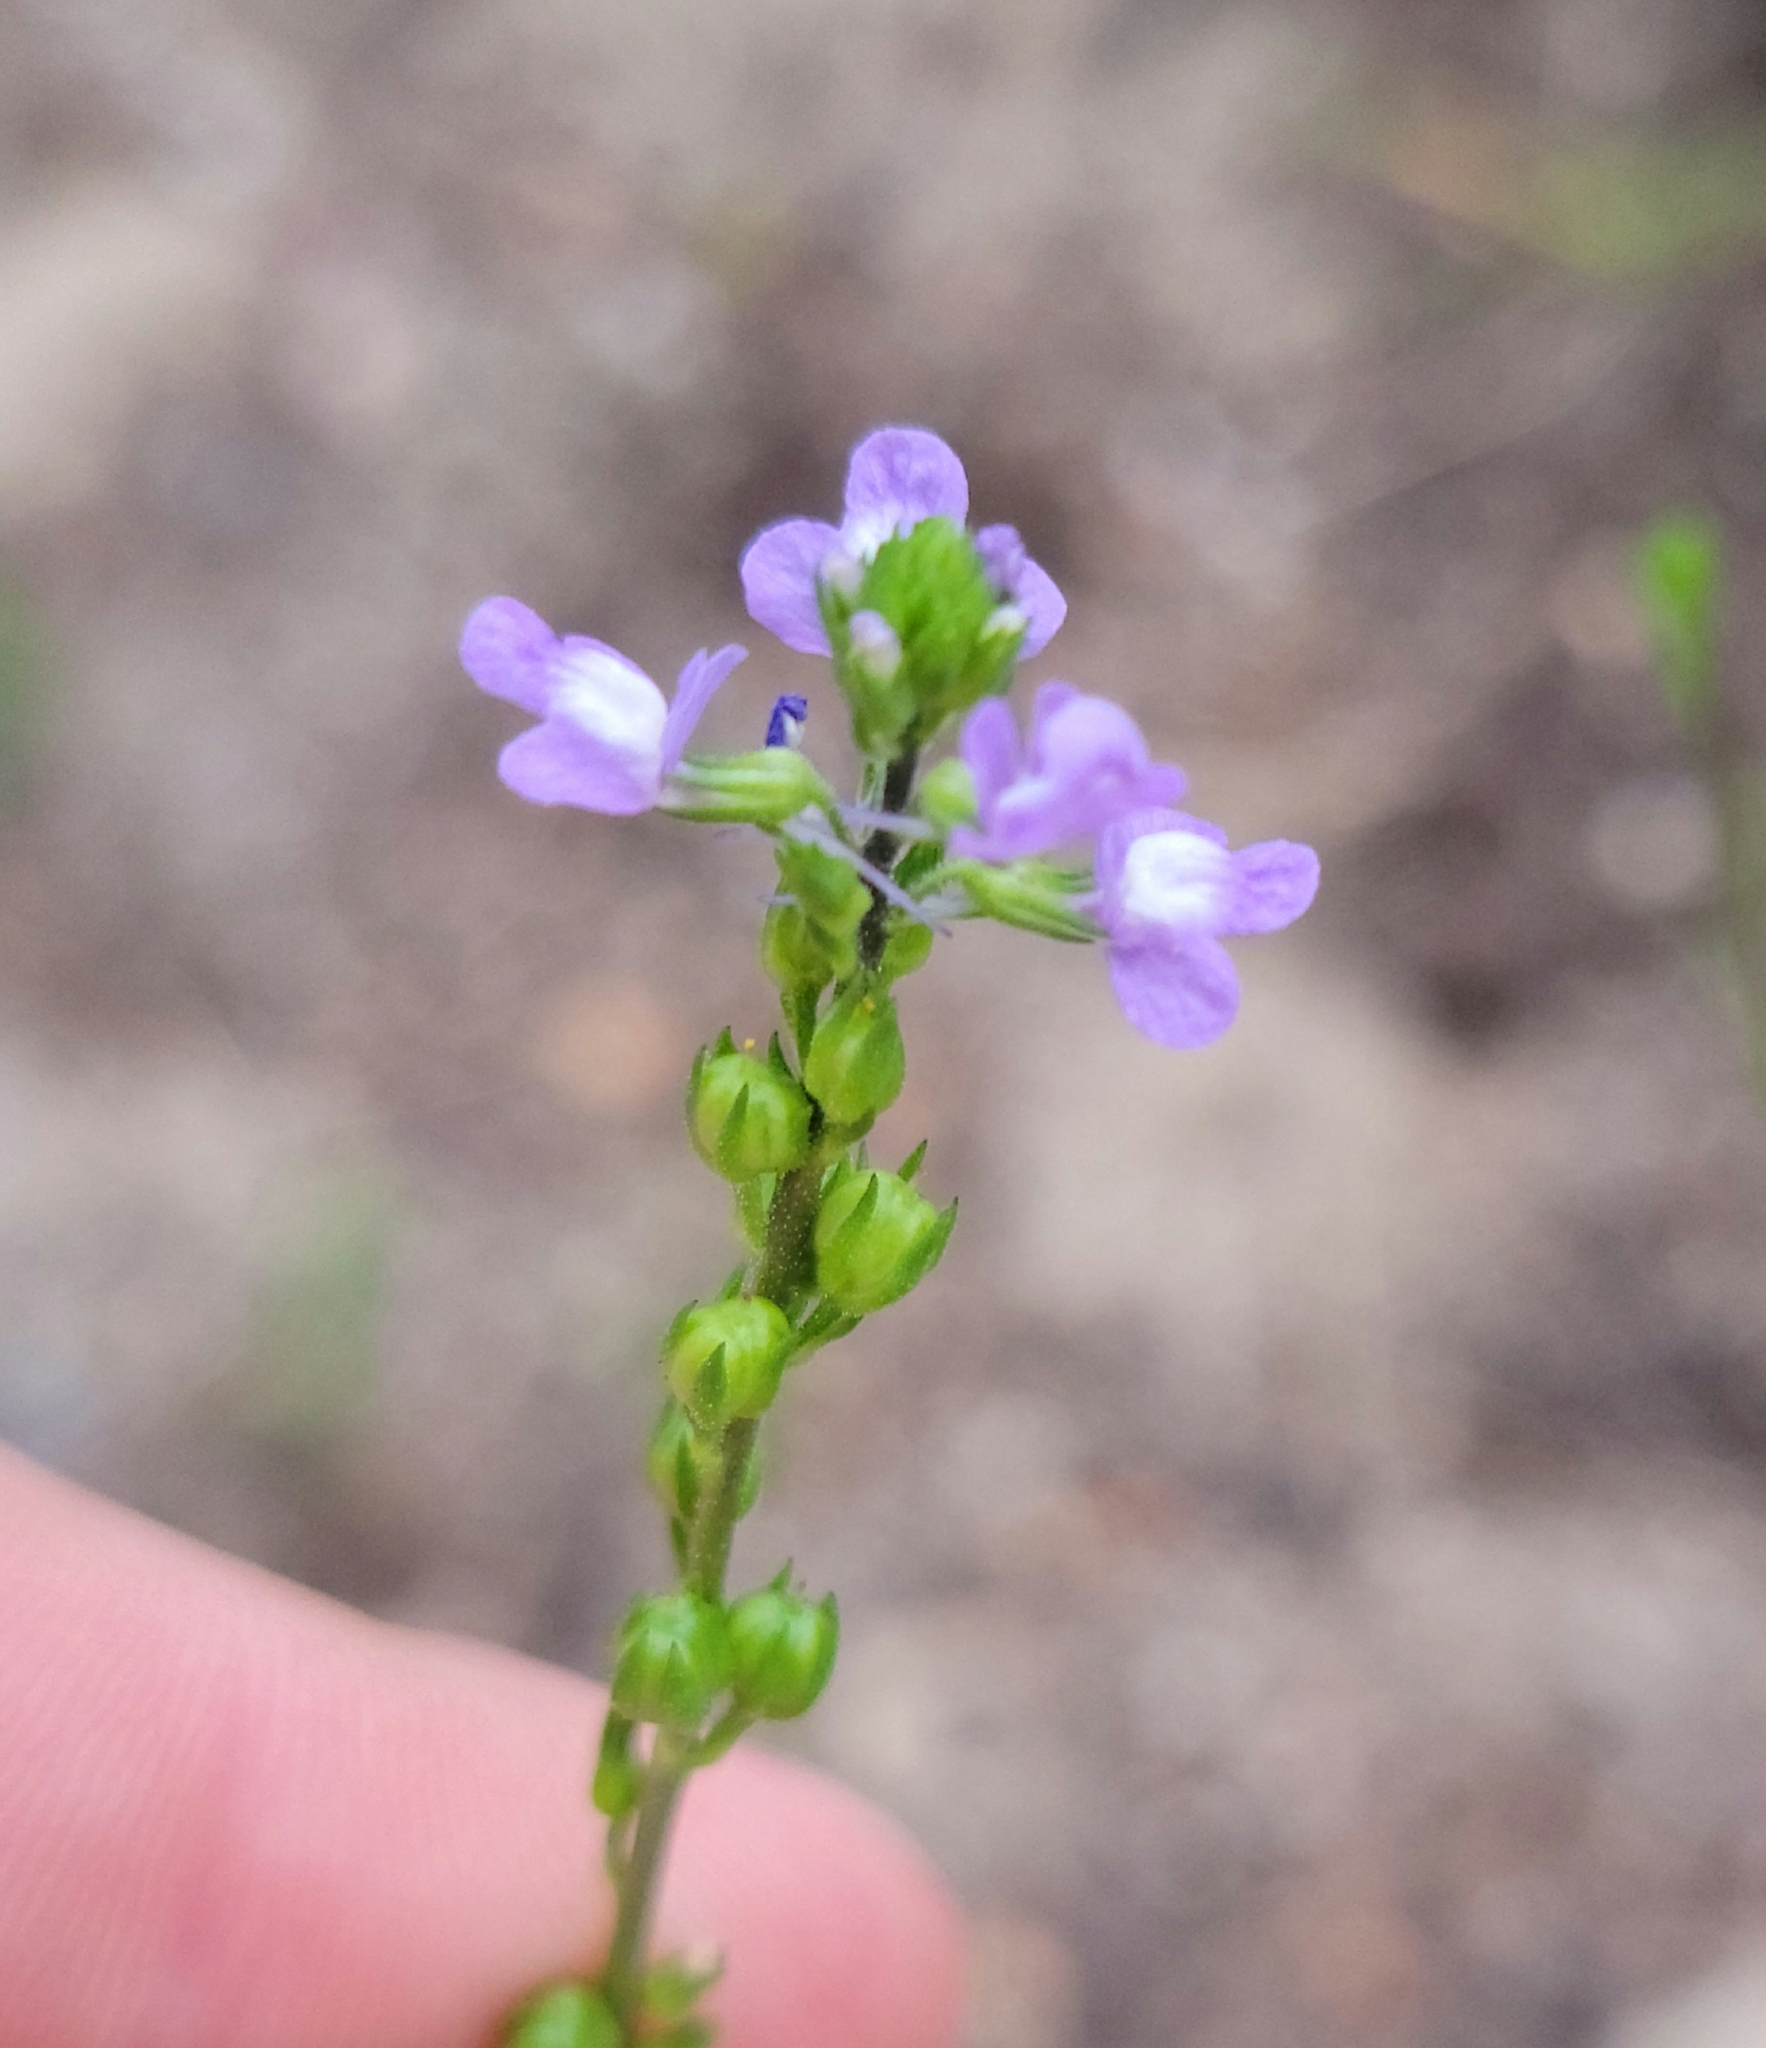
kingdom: Plantae
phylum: Tracheophyta
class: Magnoliopsida
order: Lamiales
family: Plantaginaceae
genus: Nuttallanthus
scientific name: Nuttallanthus canadensis
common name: Blue toadflax
